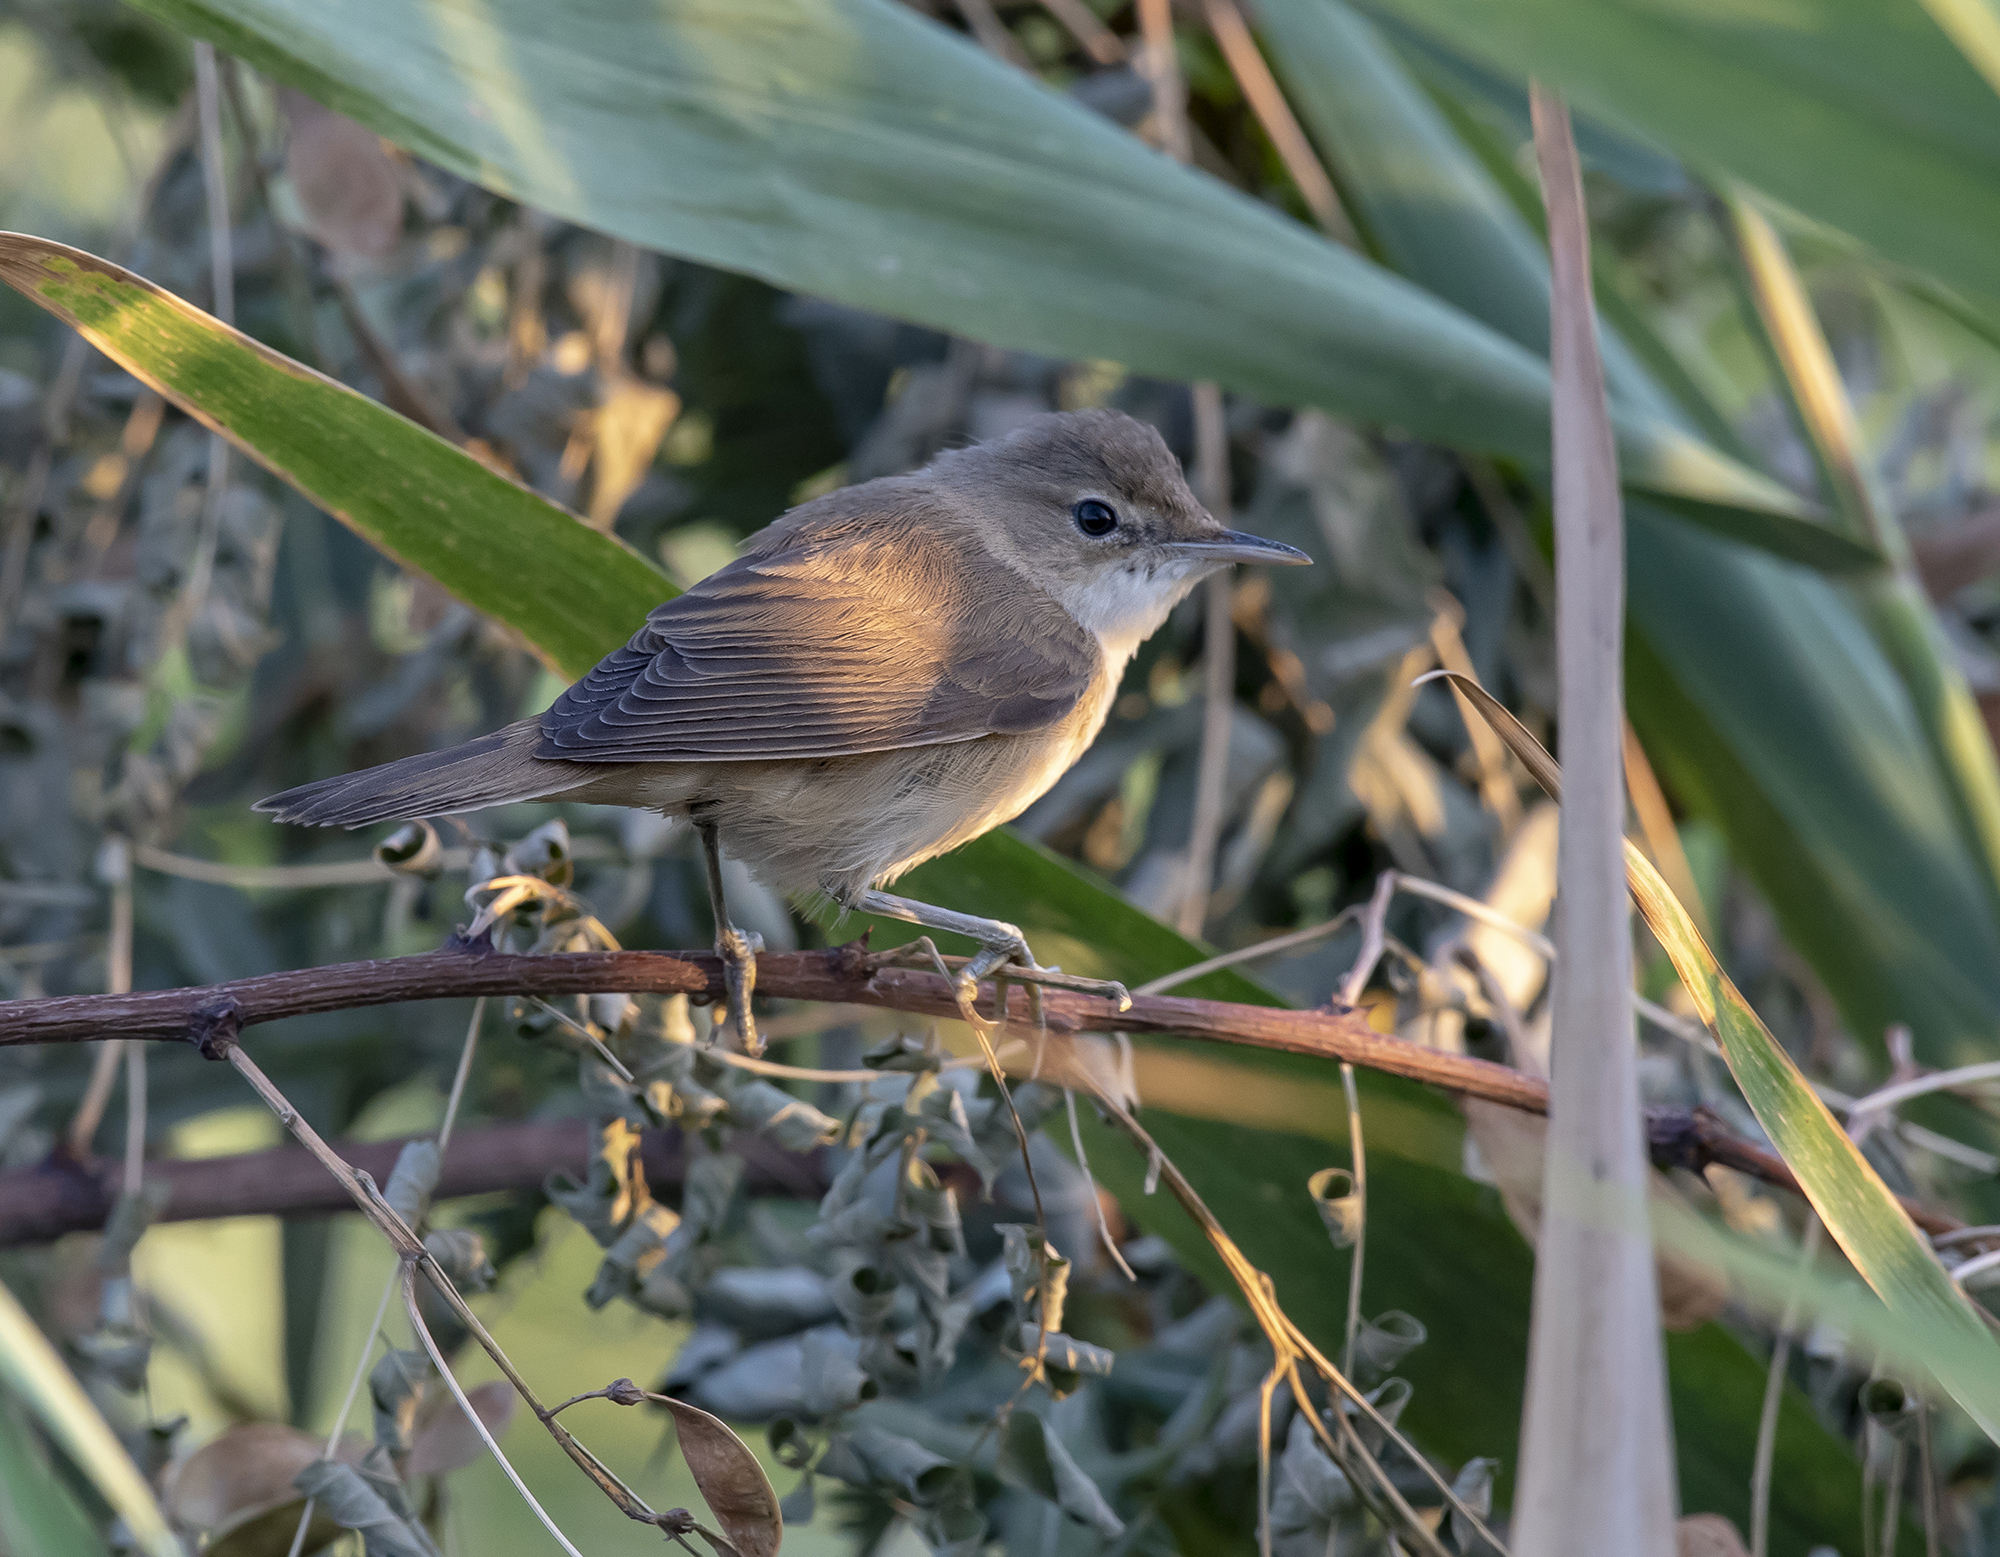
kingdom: Animalia
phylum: Chordata
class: Aves
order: Passeriformes
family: Acrocephalidae
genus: Acrocephalus
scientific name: Acrocephalus scirpaceus
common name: Eurasian reed warbler
